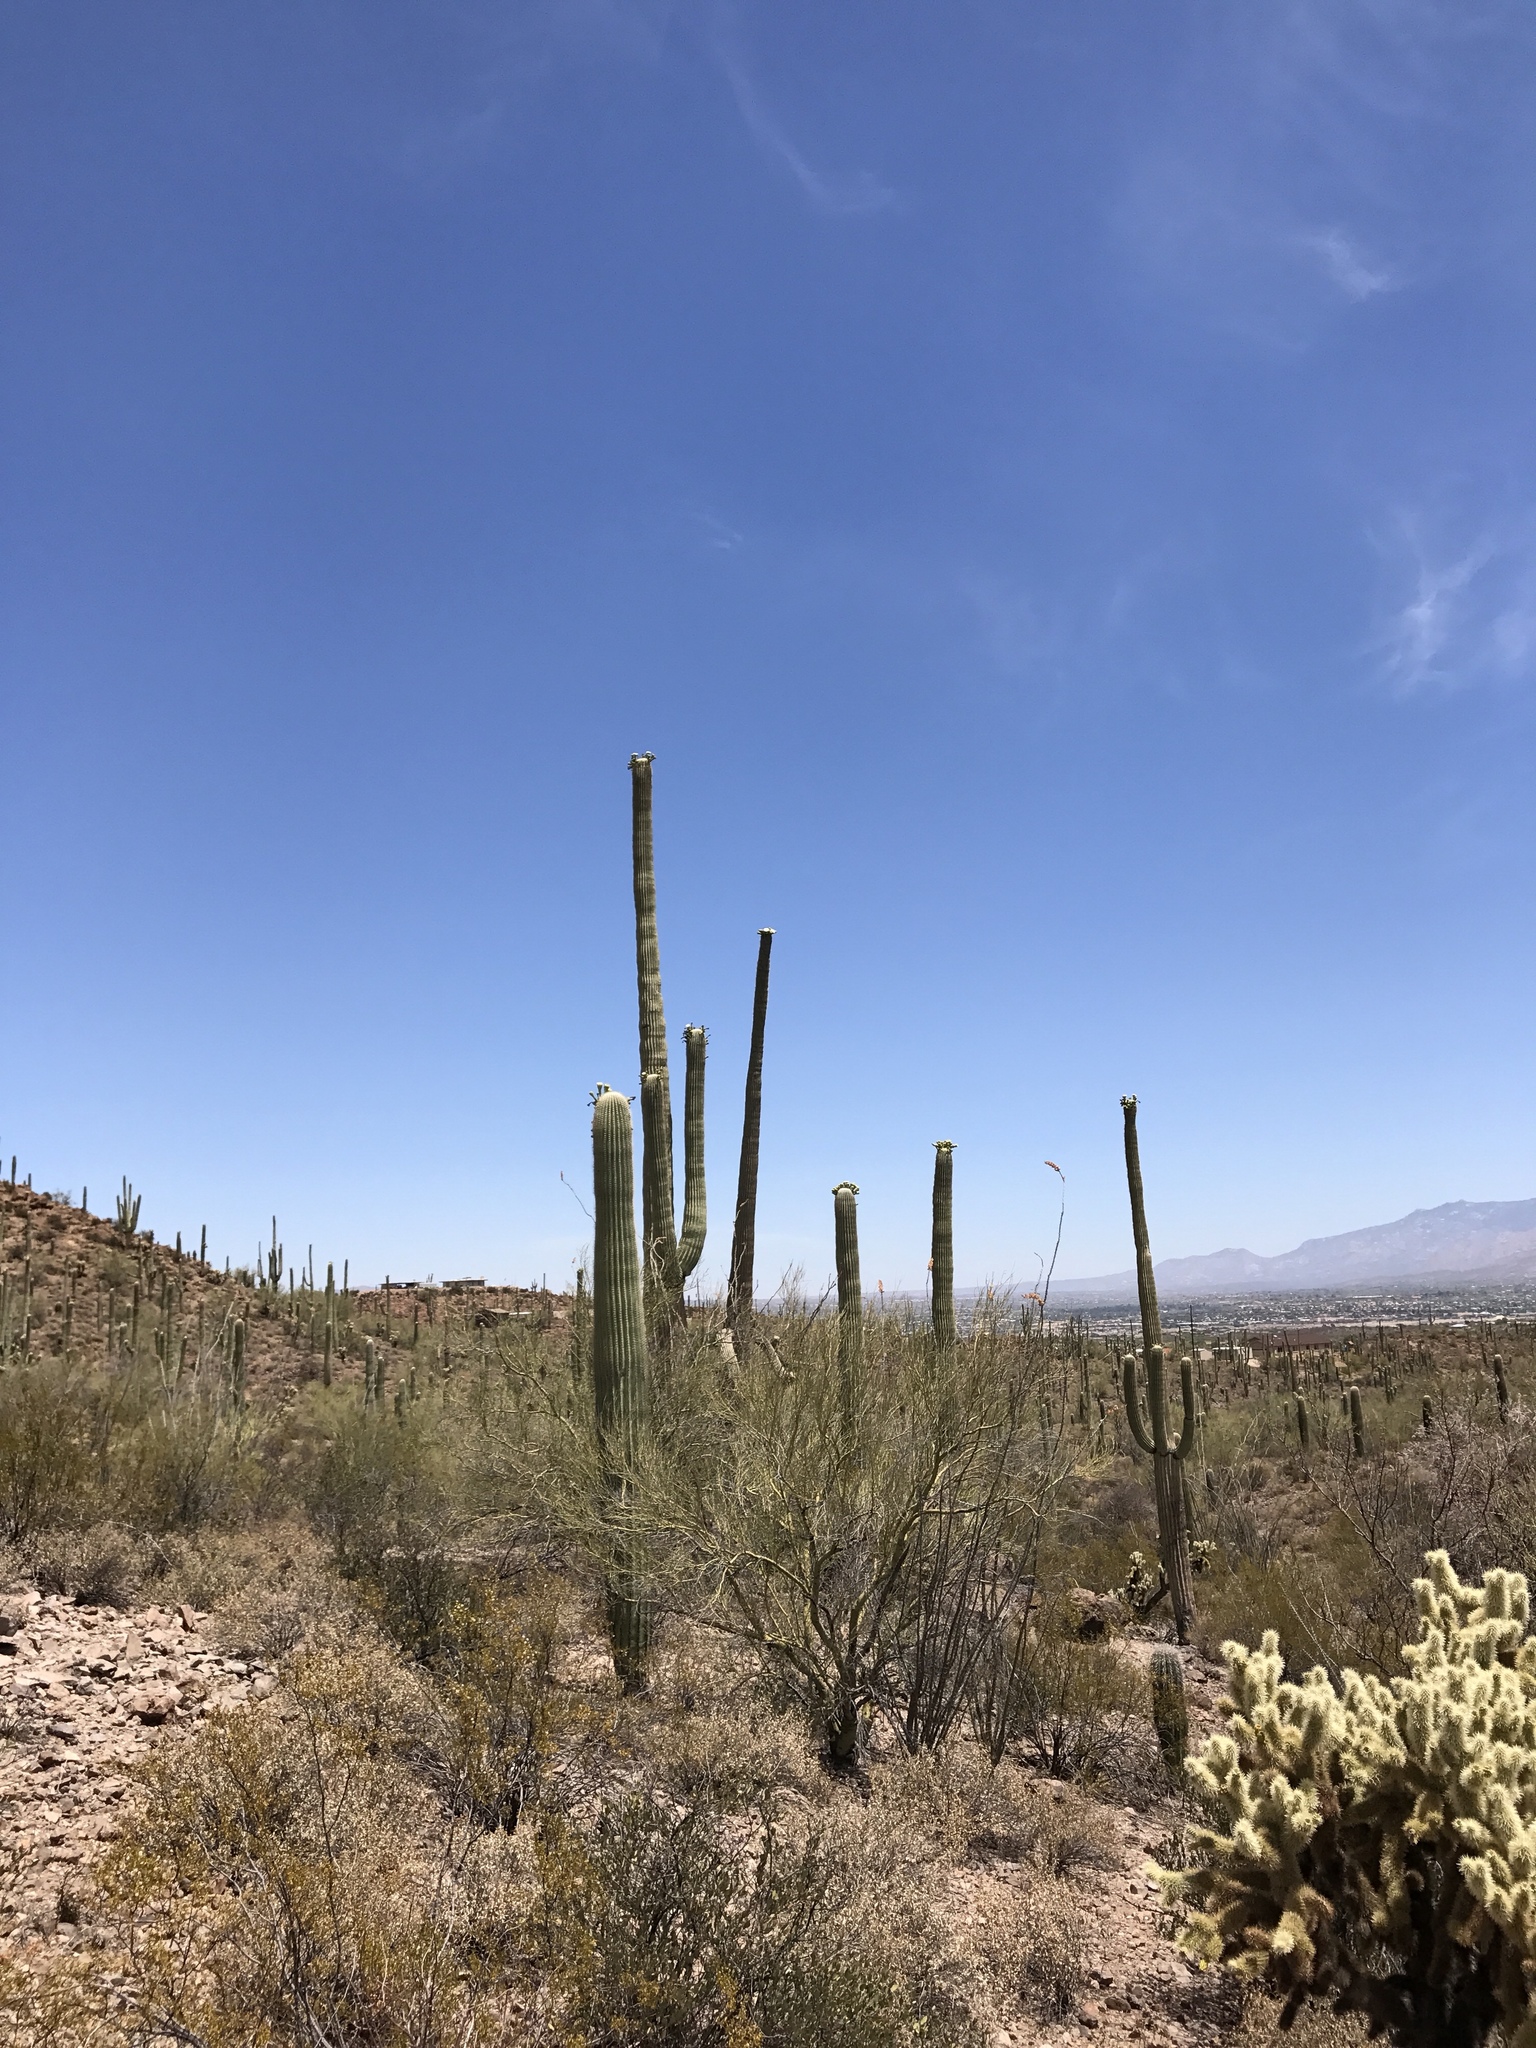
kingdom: Plantae
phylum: Tracheophyta
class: Magnoliopsida
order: Caryophyllales
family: Cactaceae
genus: Carnegiea
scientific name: Carnegiea gigantea
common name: Saguaro
